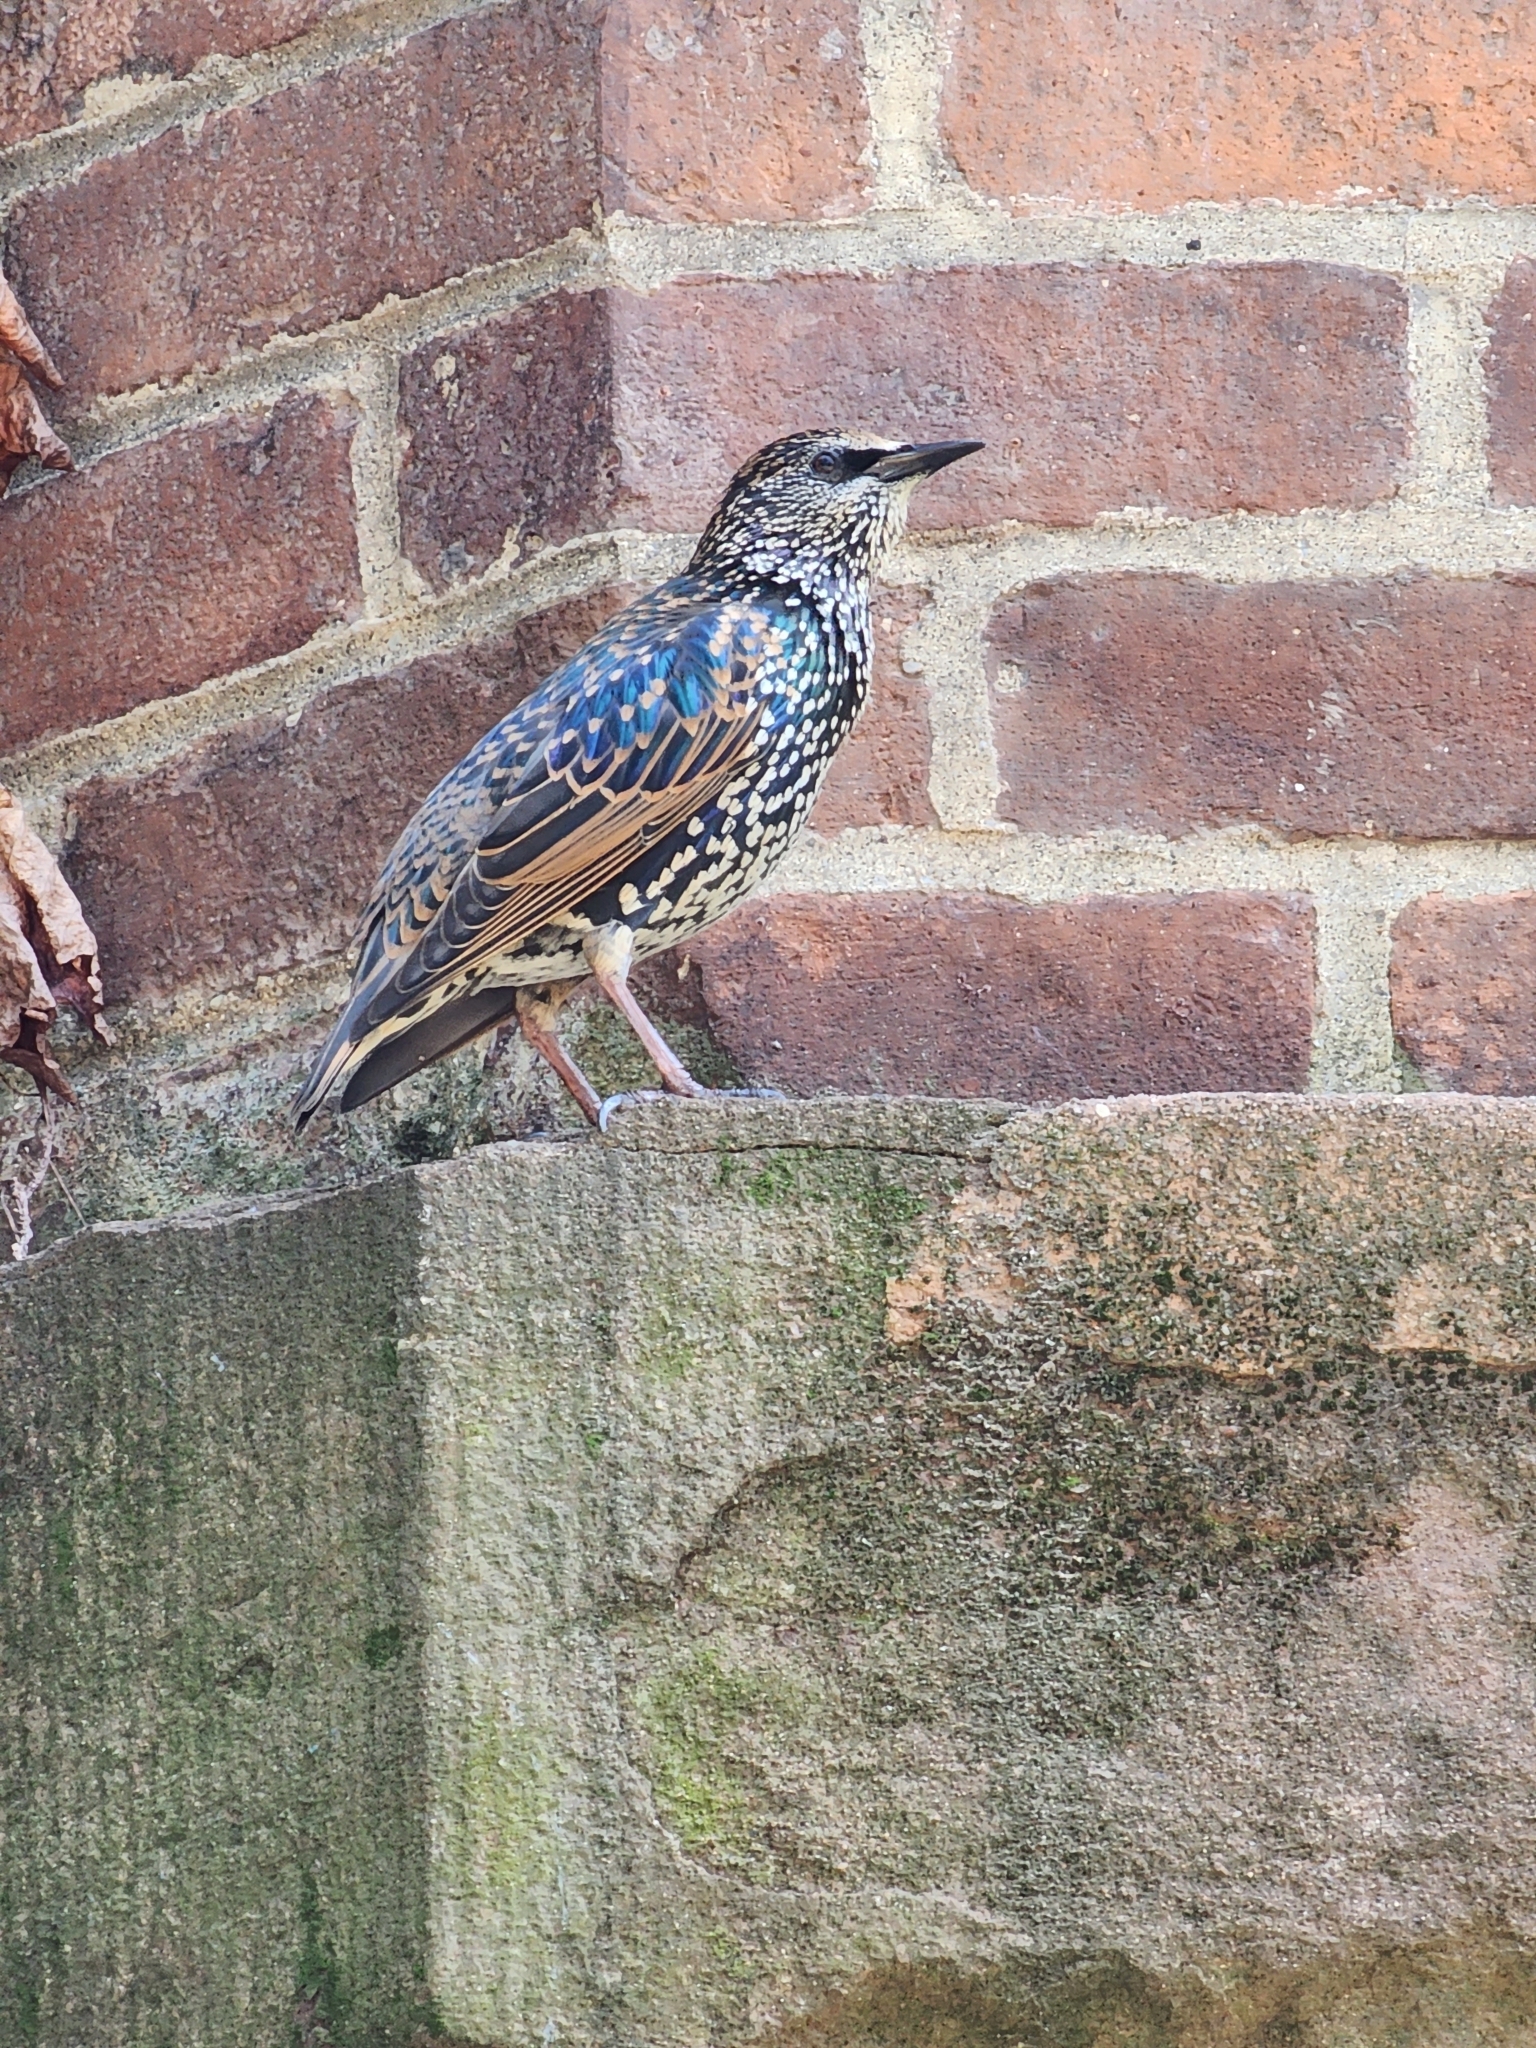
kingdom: Animalia
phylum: Chordata
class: Aves
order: Passeriformes
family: Sturnidae
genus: Sturnus
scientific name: Sturnus vulgaris
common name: Common starling
